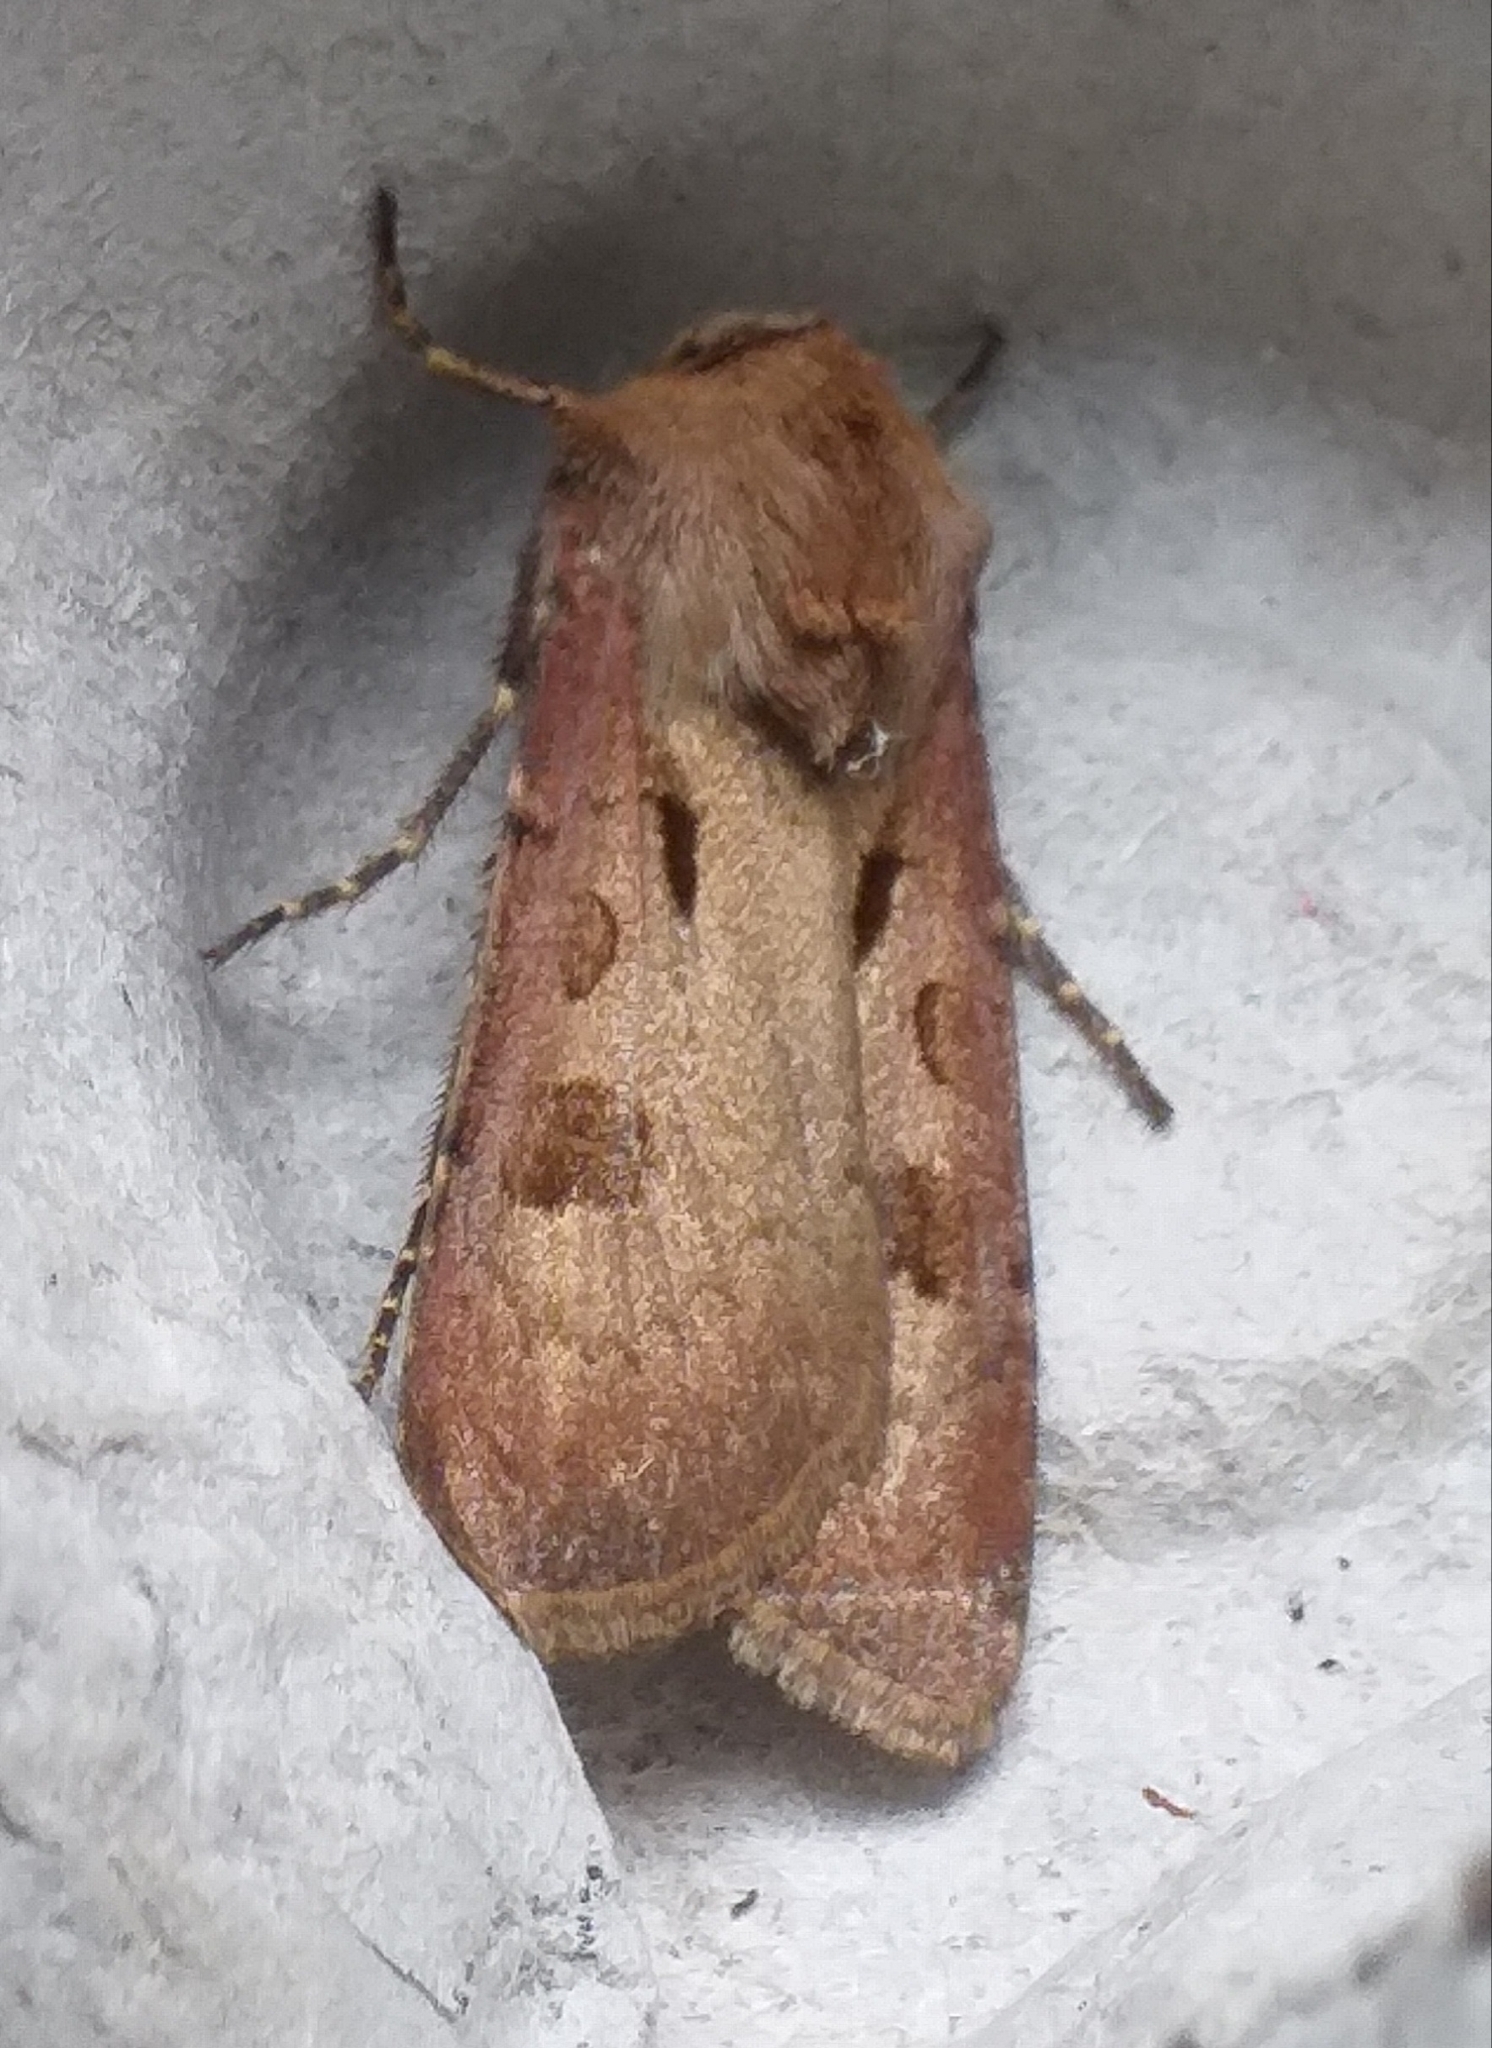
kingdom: Animalia
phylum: Arthropoda
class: Insecta
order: Lepidoptera
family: Noctuidae
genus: Agrotis
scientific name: Agrotis exclamationis
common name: Heart and dart
